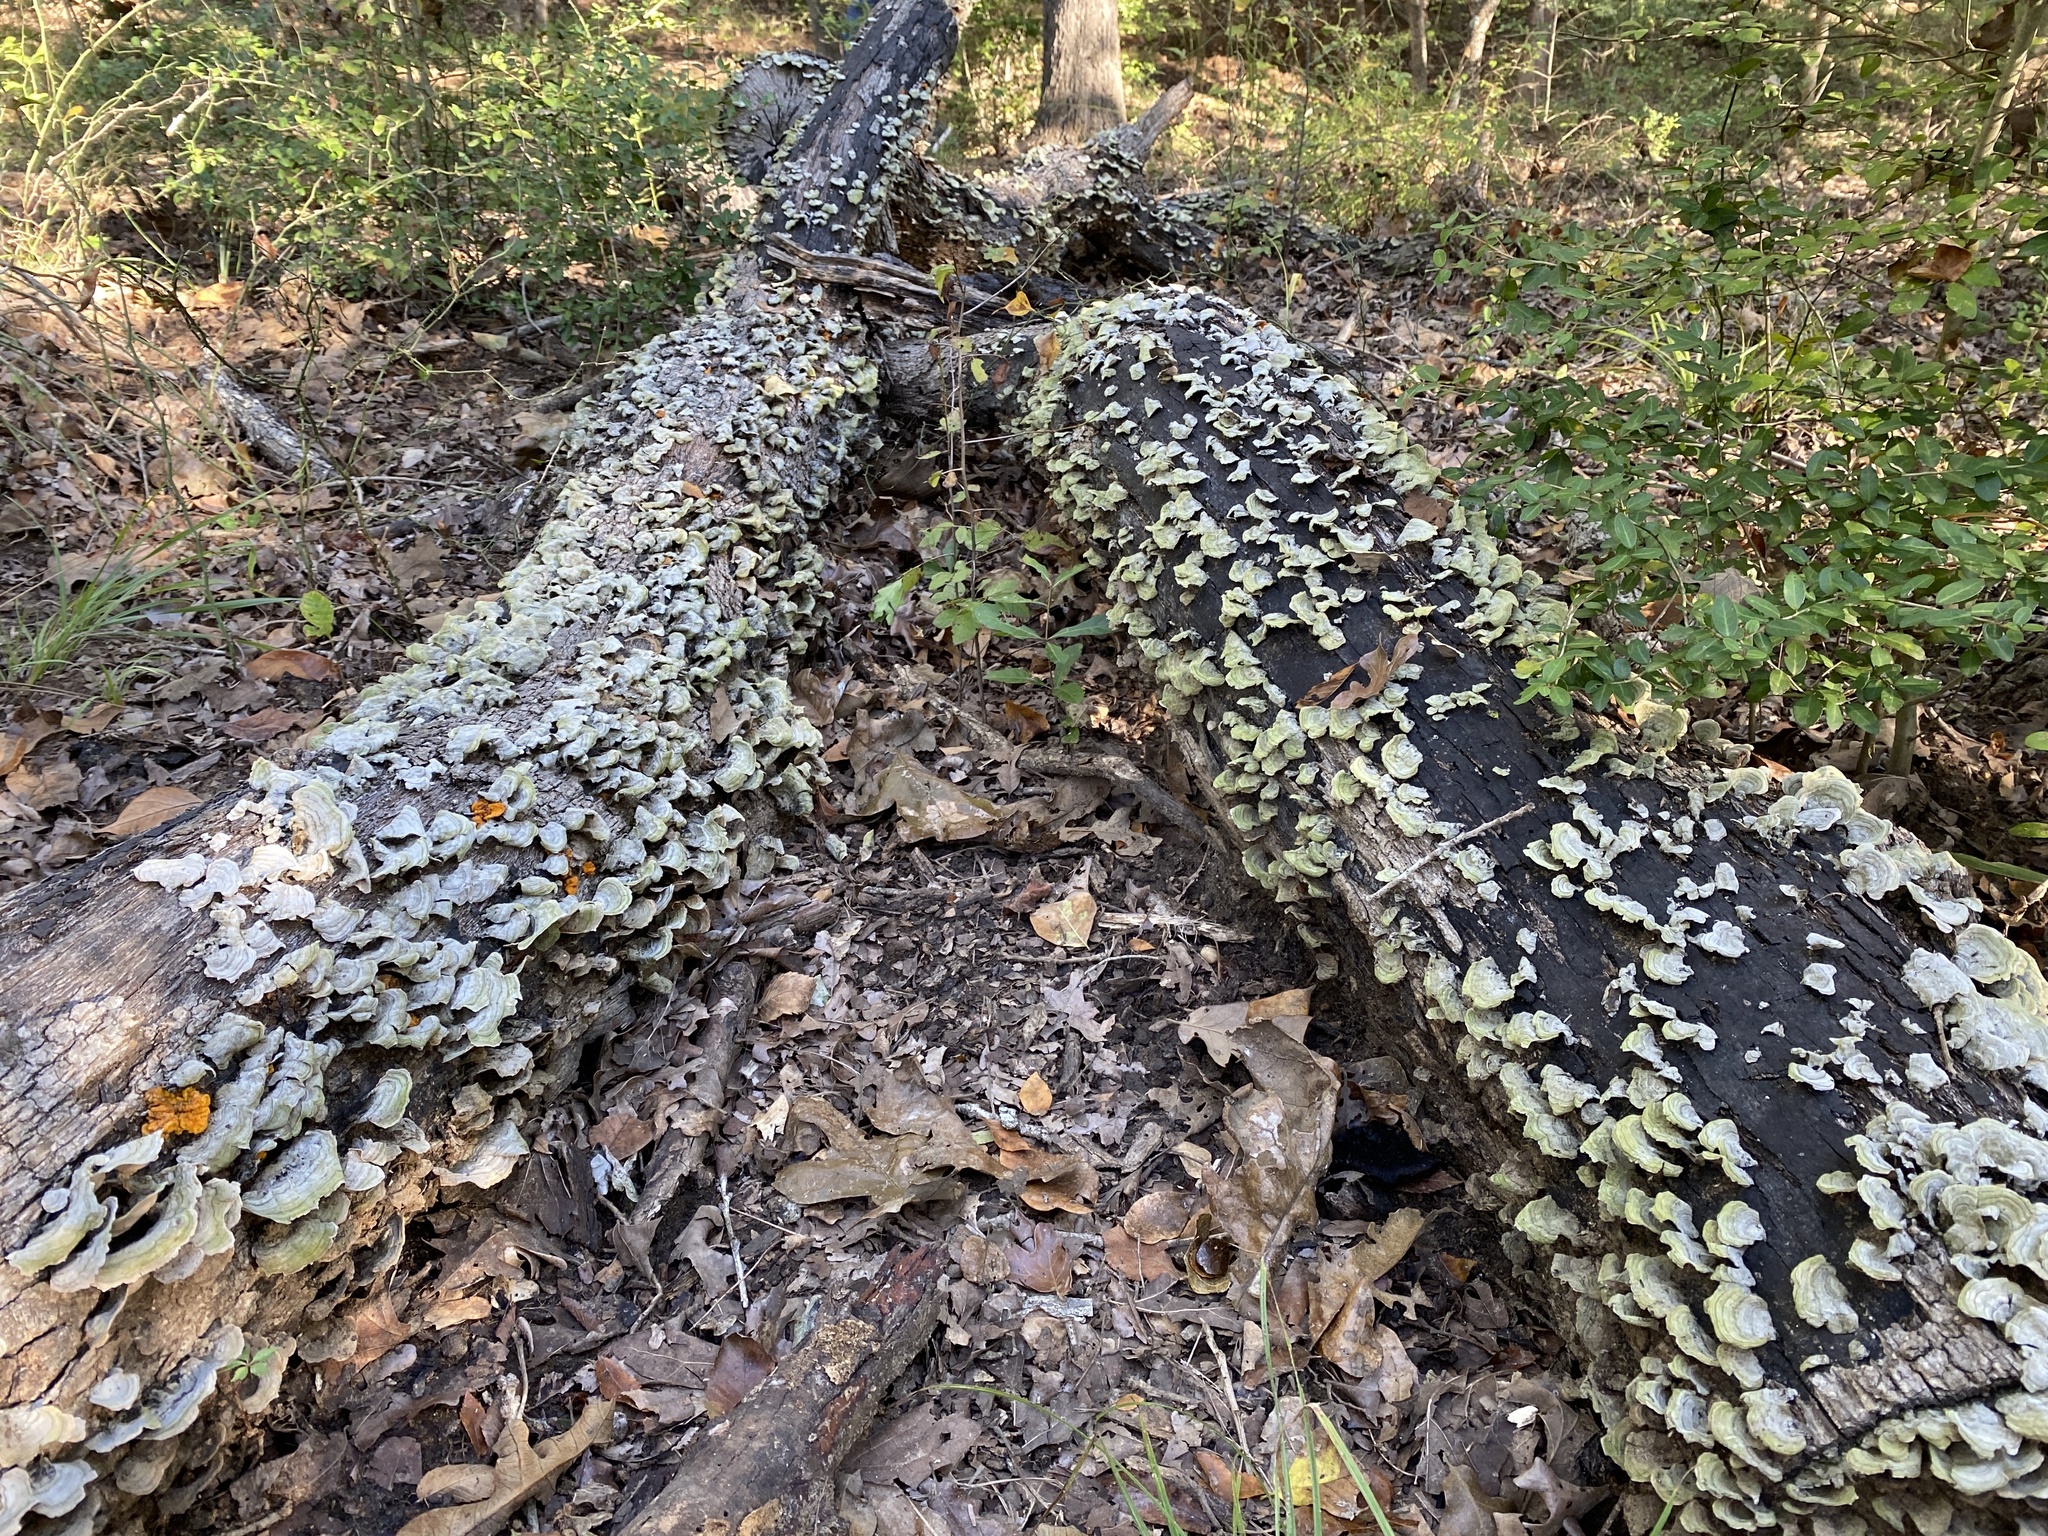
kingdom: Fungi
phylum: Basidiomycota
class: Agaricomycetes
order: Russulales
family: Stereaceae
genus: Stereum
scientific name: Stereum ostrea
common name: False turkeytail
